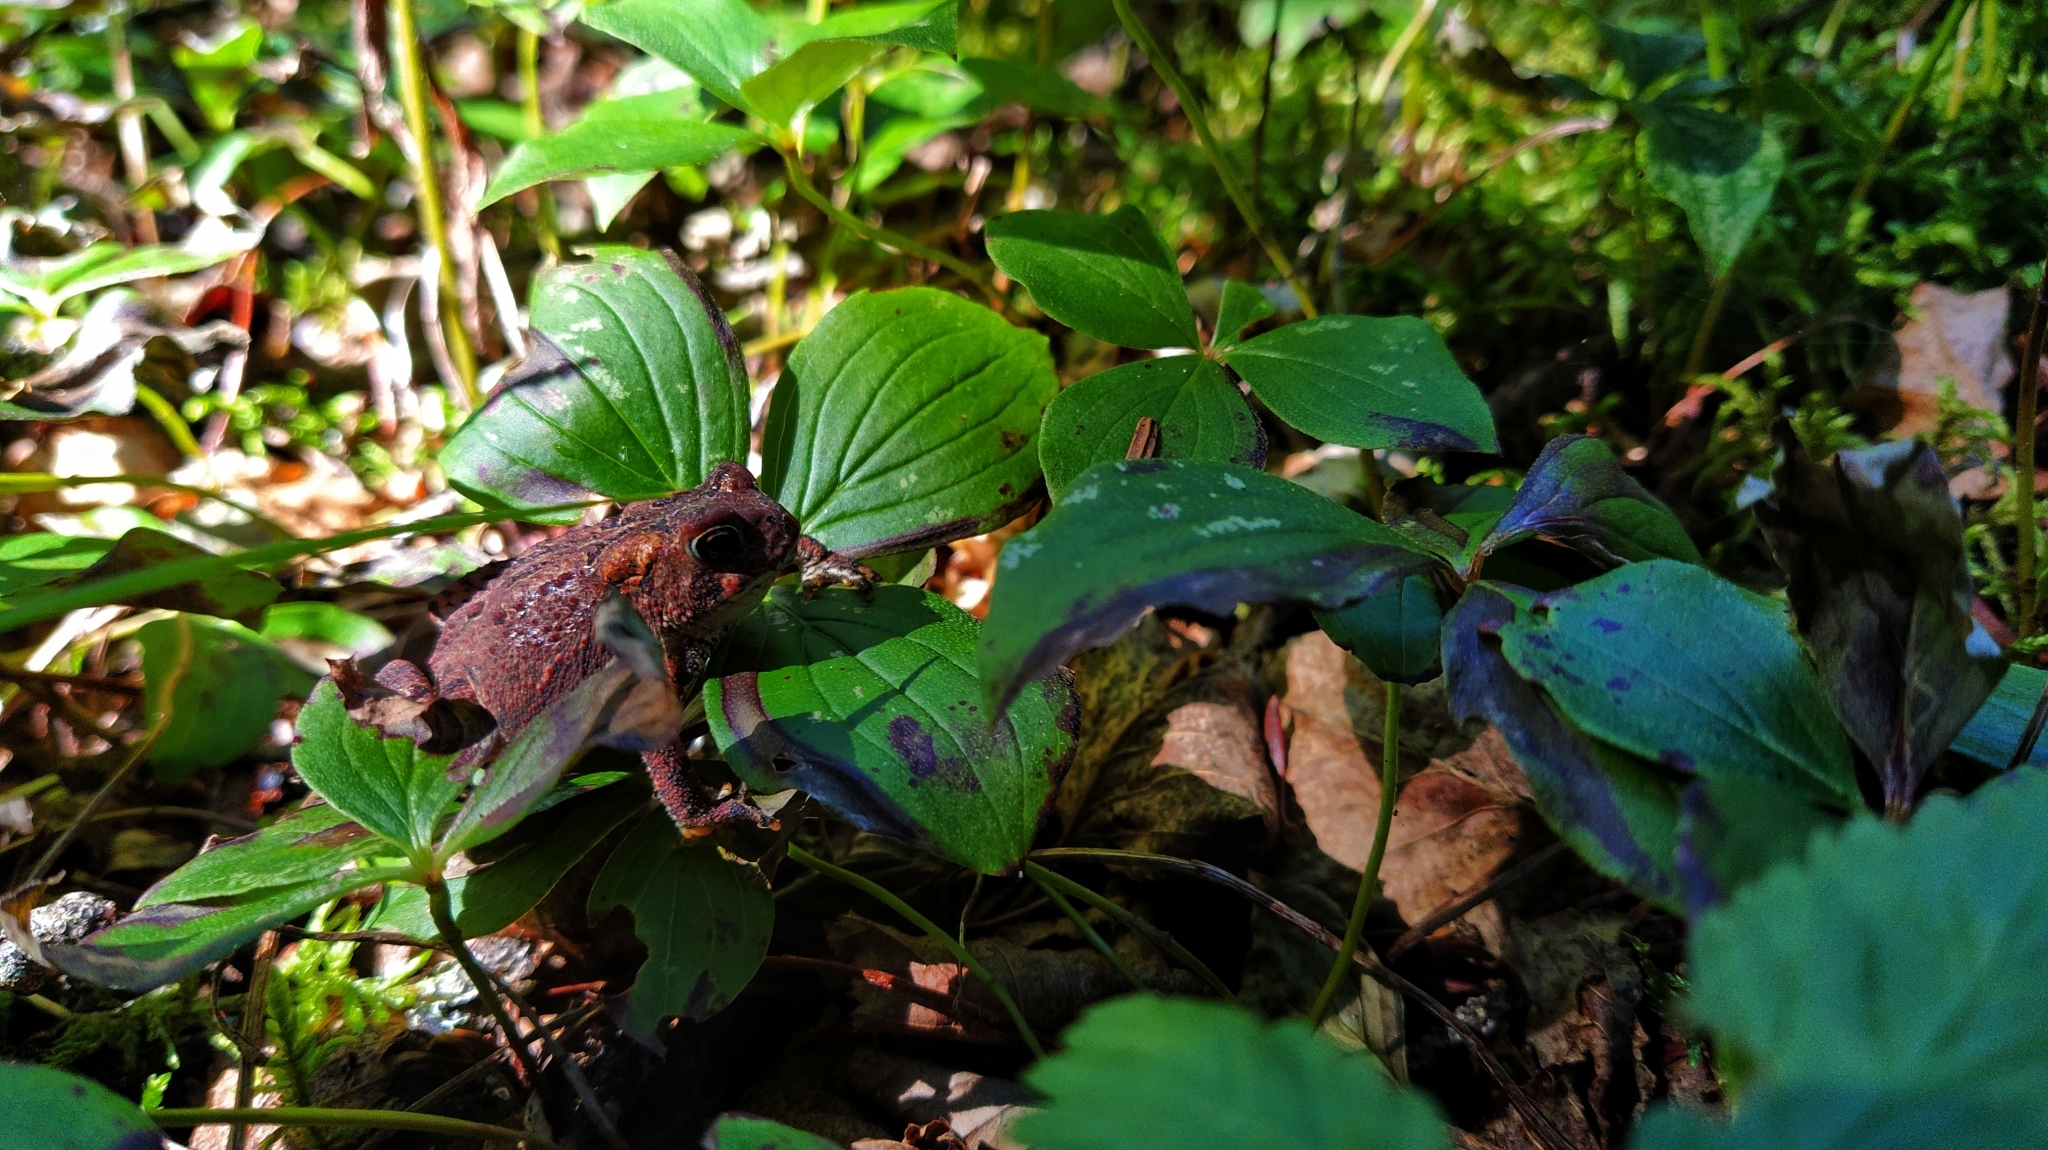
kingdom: Animalia
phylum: Chordata
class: Amphibia
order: Anura
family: Bufonidae
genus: Anaxyrus
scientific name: Anaxyrus americanus
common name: American toad
